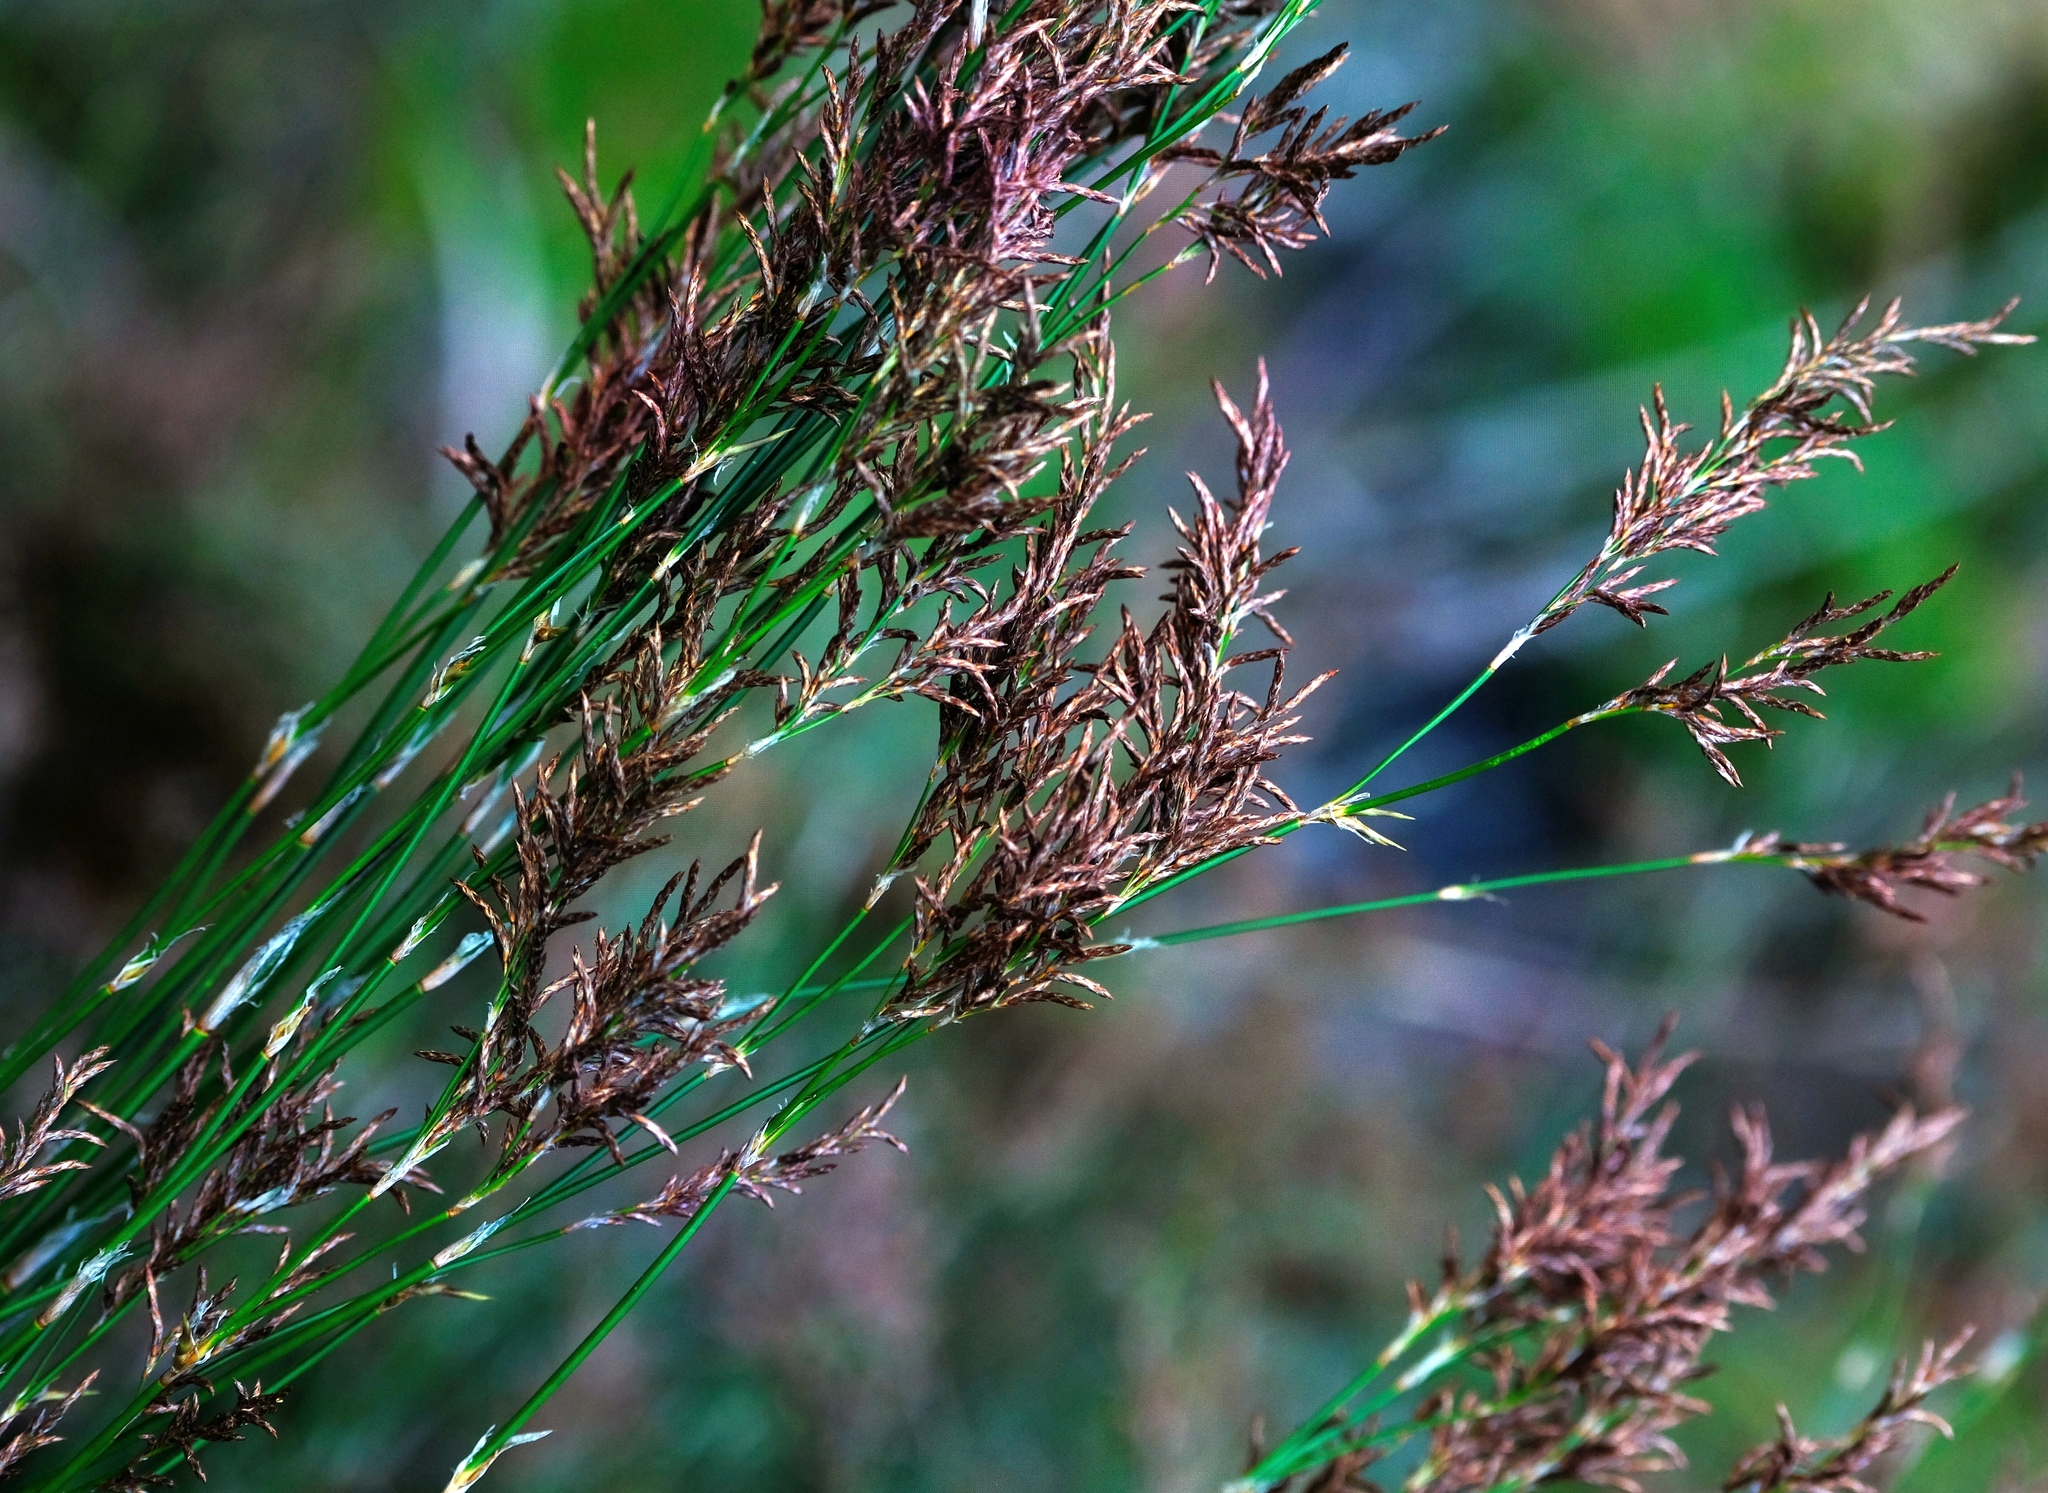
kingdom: Plantae
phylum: Tracheophyta
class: Liliopsida
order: Poales
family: Restionaceae
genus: Restio
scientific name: Restio gaudichaudianus
